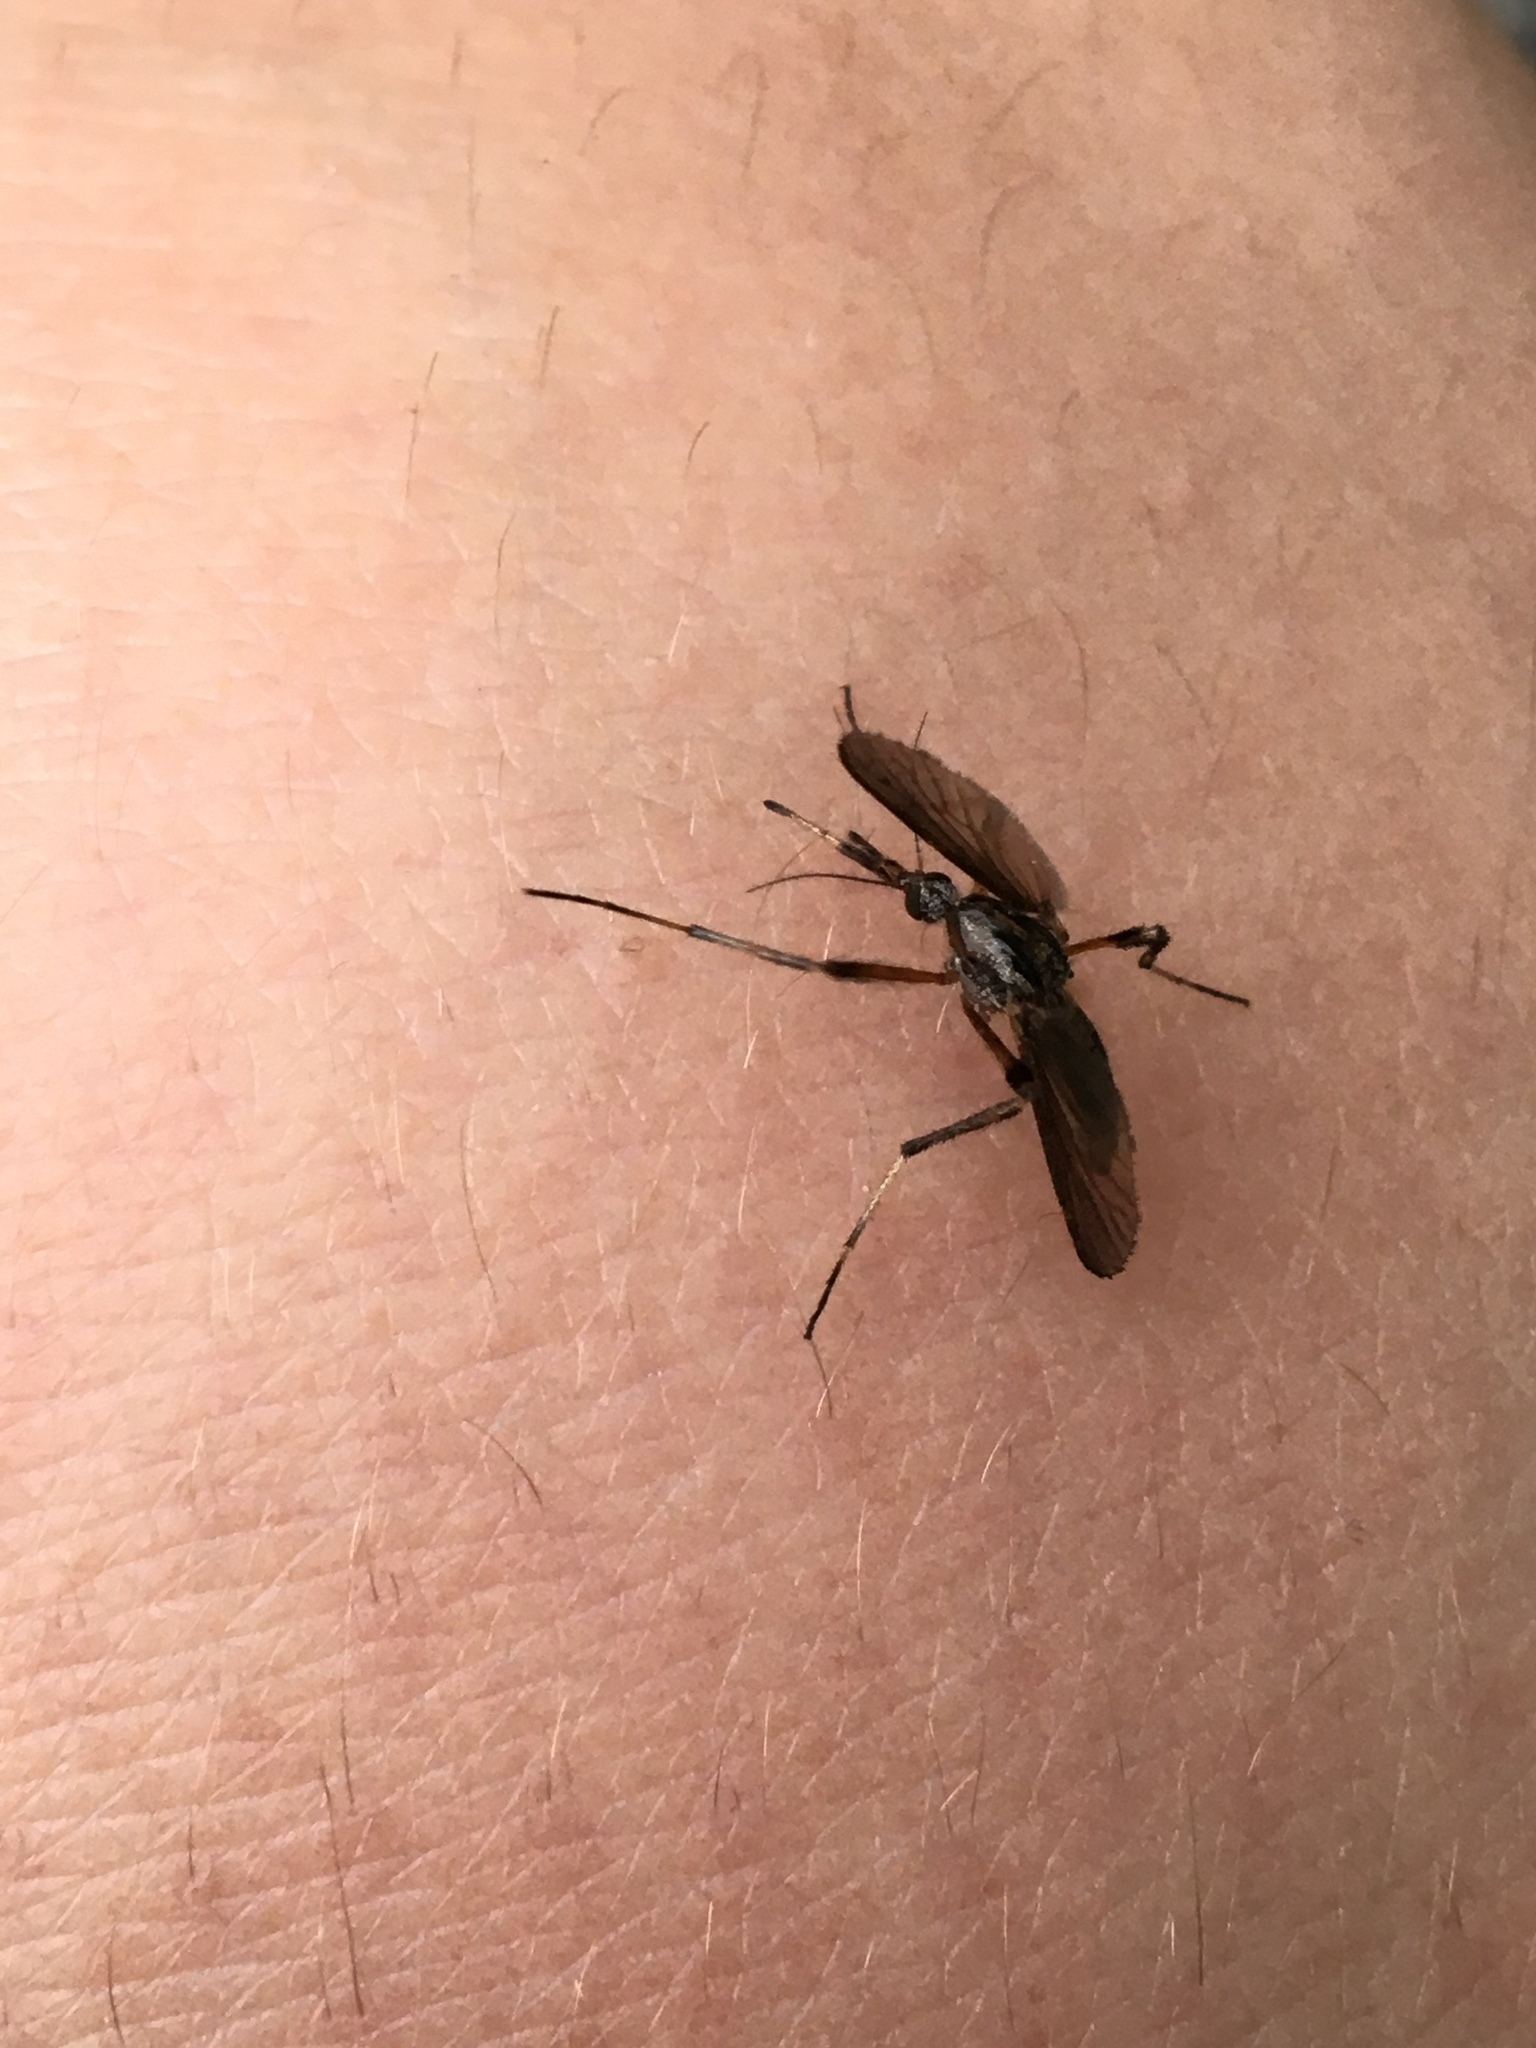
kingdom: Animalia
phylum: Arthropoda
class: Insecta
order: Diptera
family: Culicidae
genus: Psorophora
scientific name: Psorophora ciliata
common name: Gallinipper
